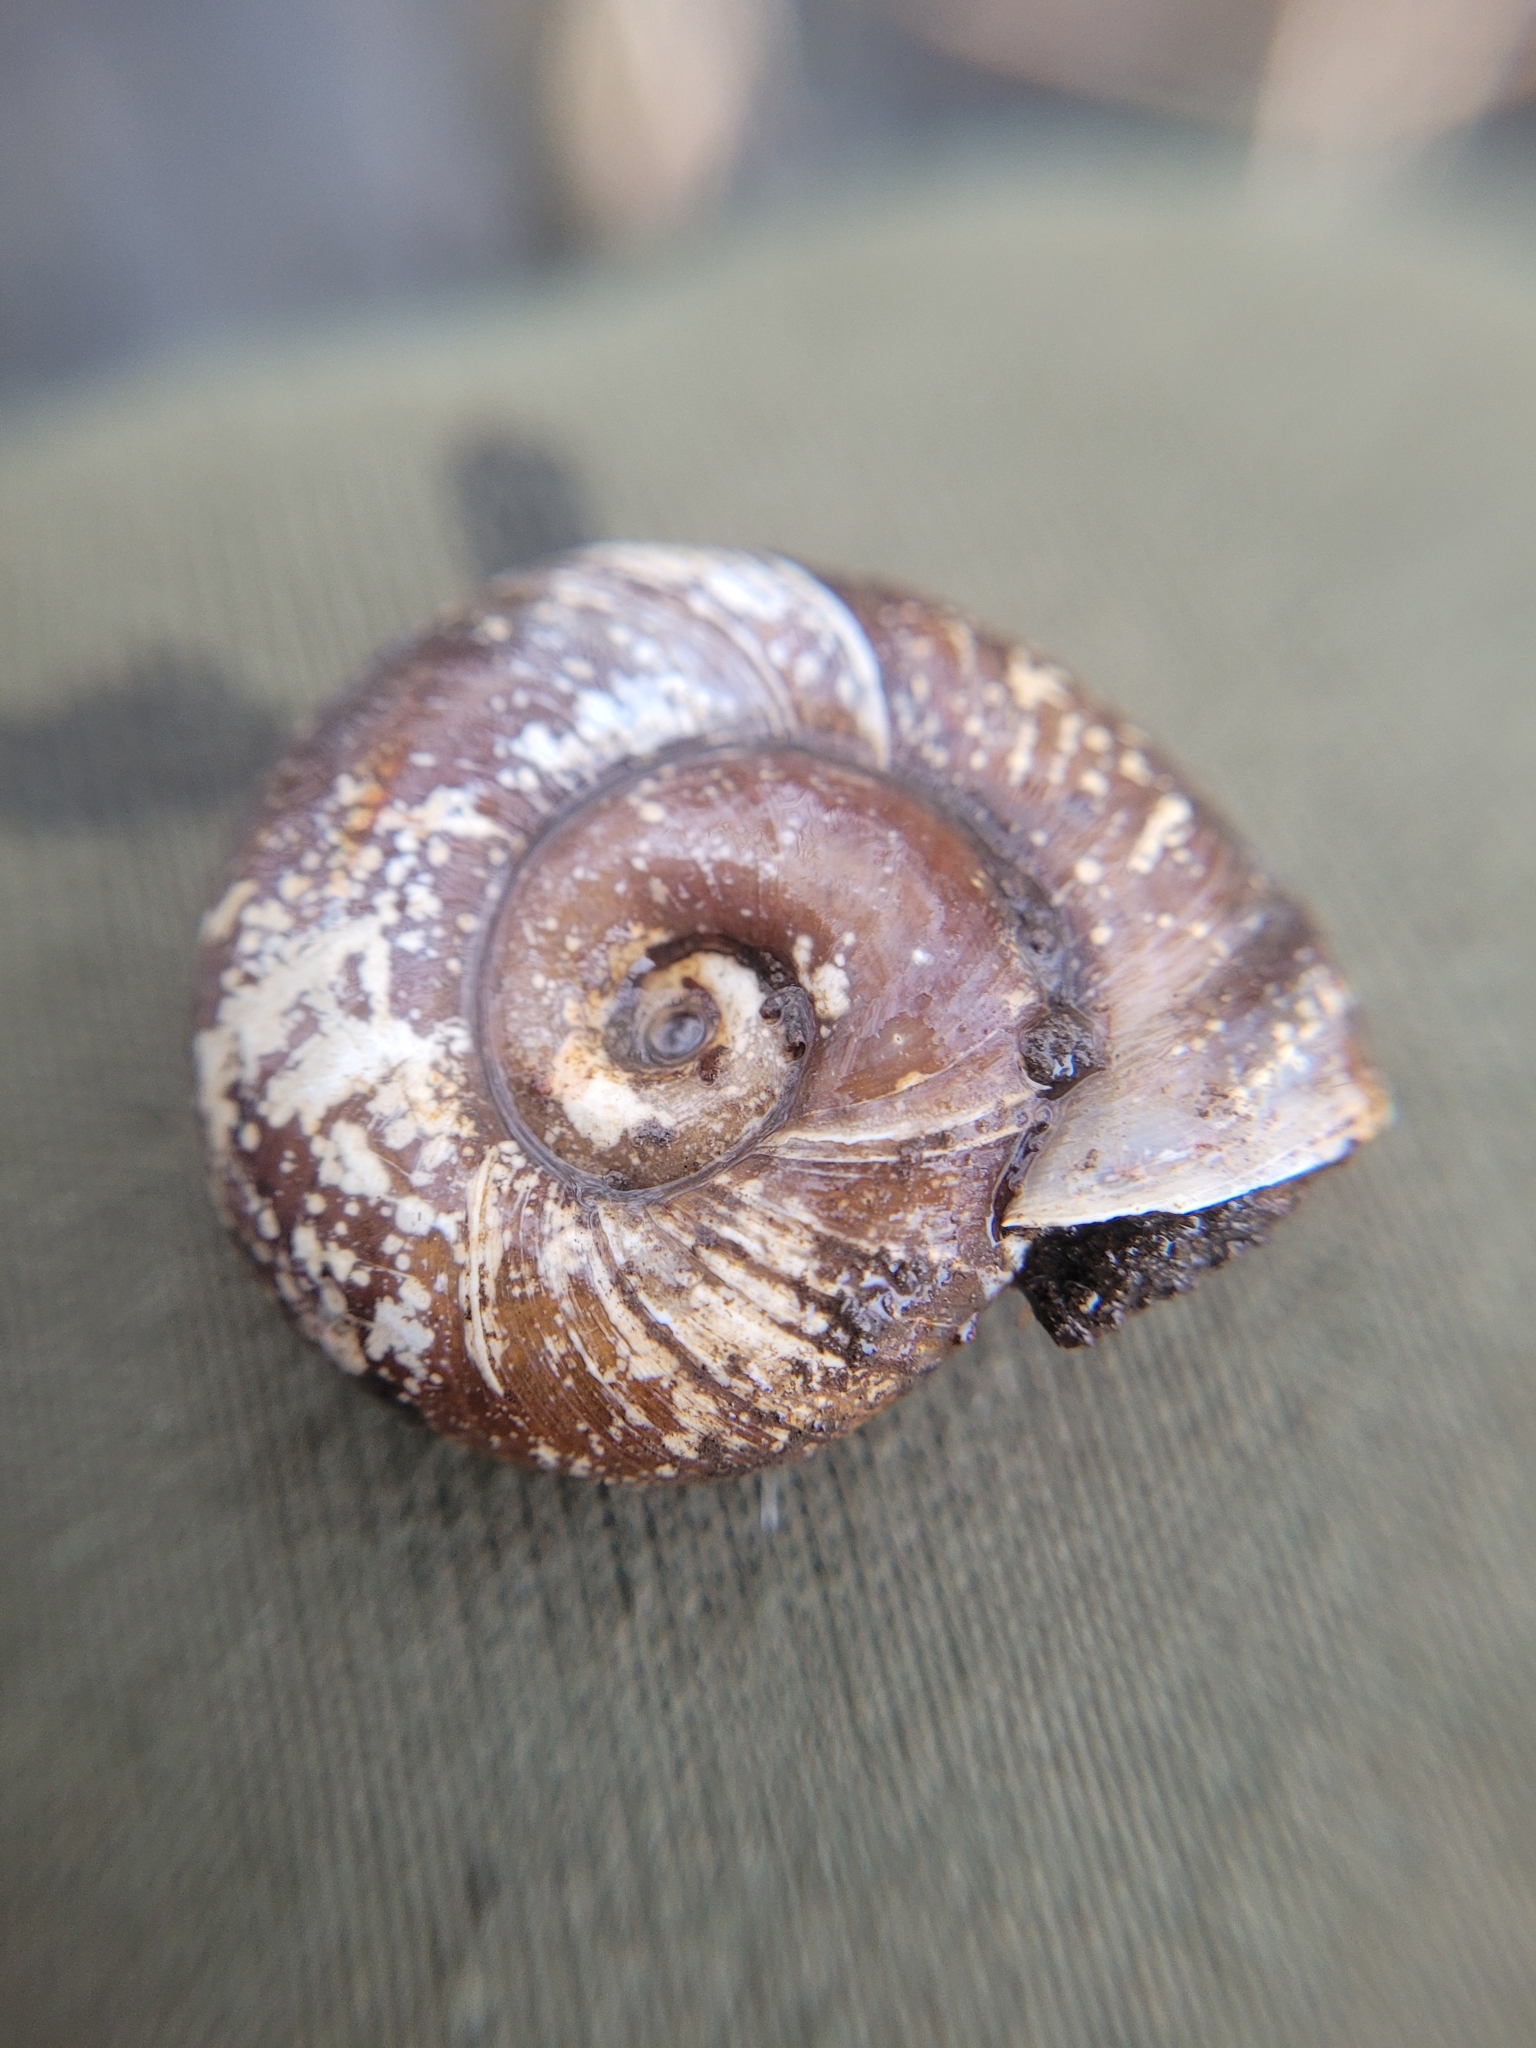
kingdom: Animalia
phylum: Mollusca
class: Gastropoda
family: Planorbidae
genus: Planorbarius
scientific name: Planorbarius corneus
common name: Great ramshorn
